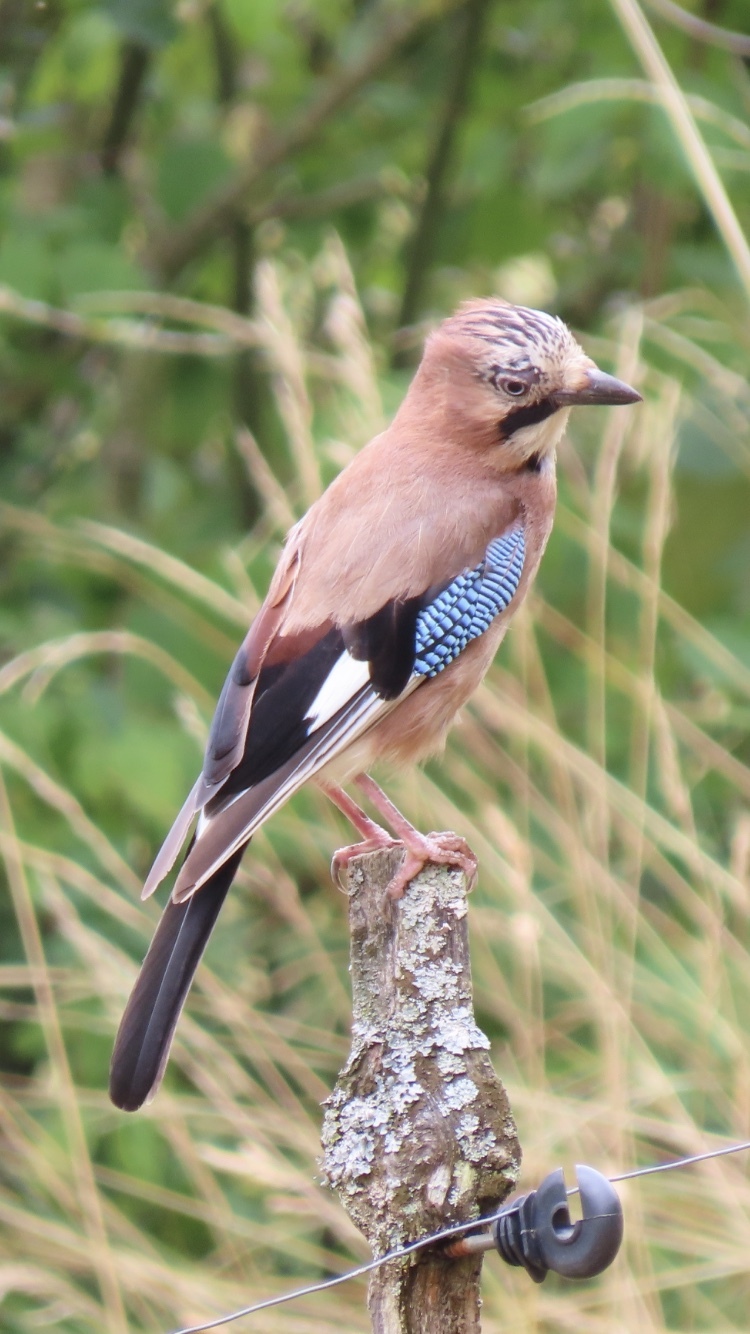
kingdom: Animalia
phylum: Chordata
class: Aves
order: Passeriformes
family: Corvidae
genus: Garrulus
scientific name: Garrulus glandarius
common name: Eurasian jay
